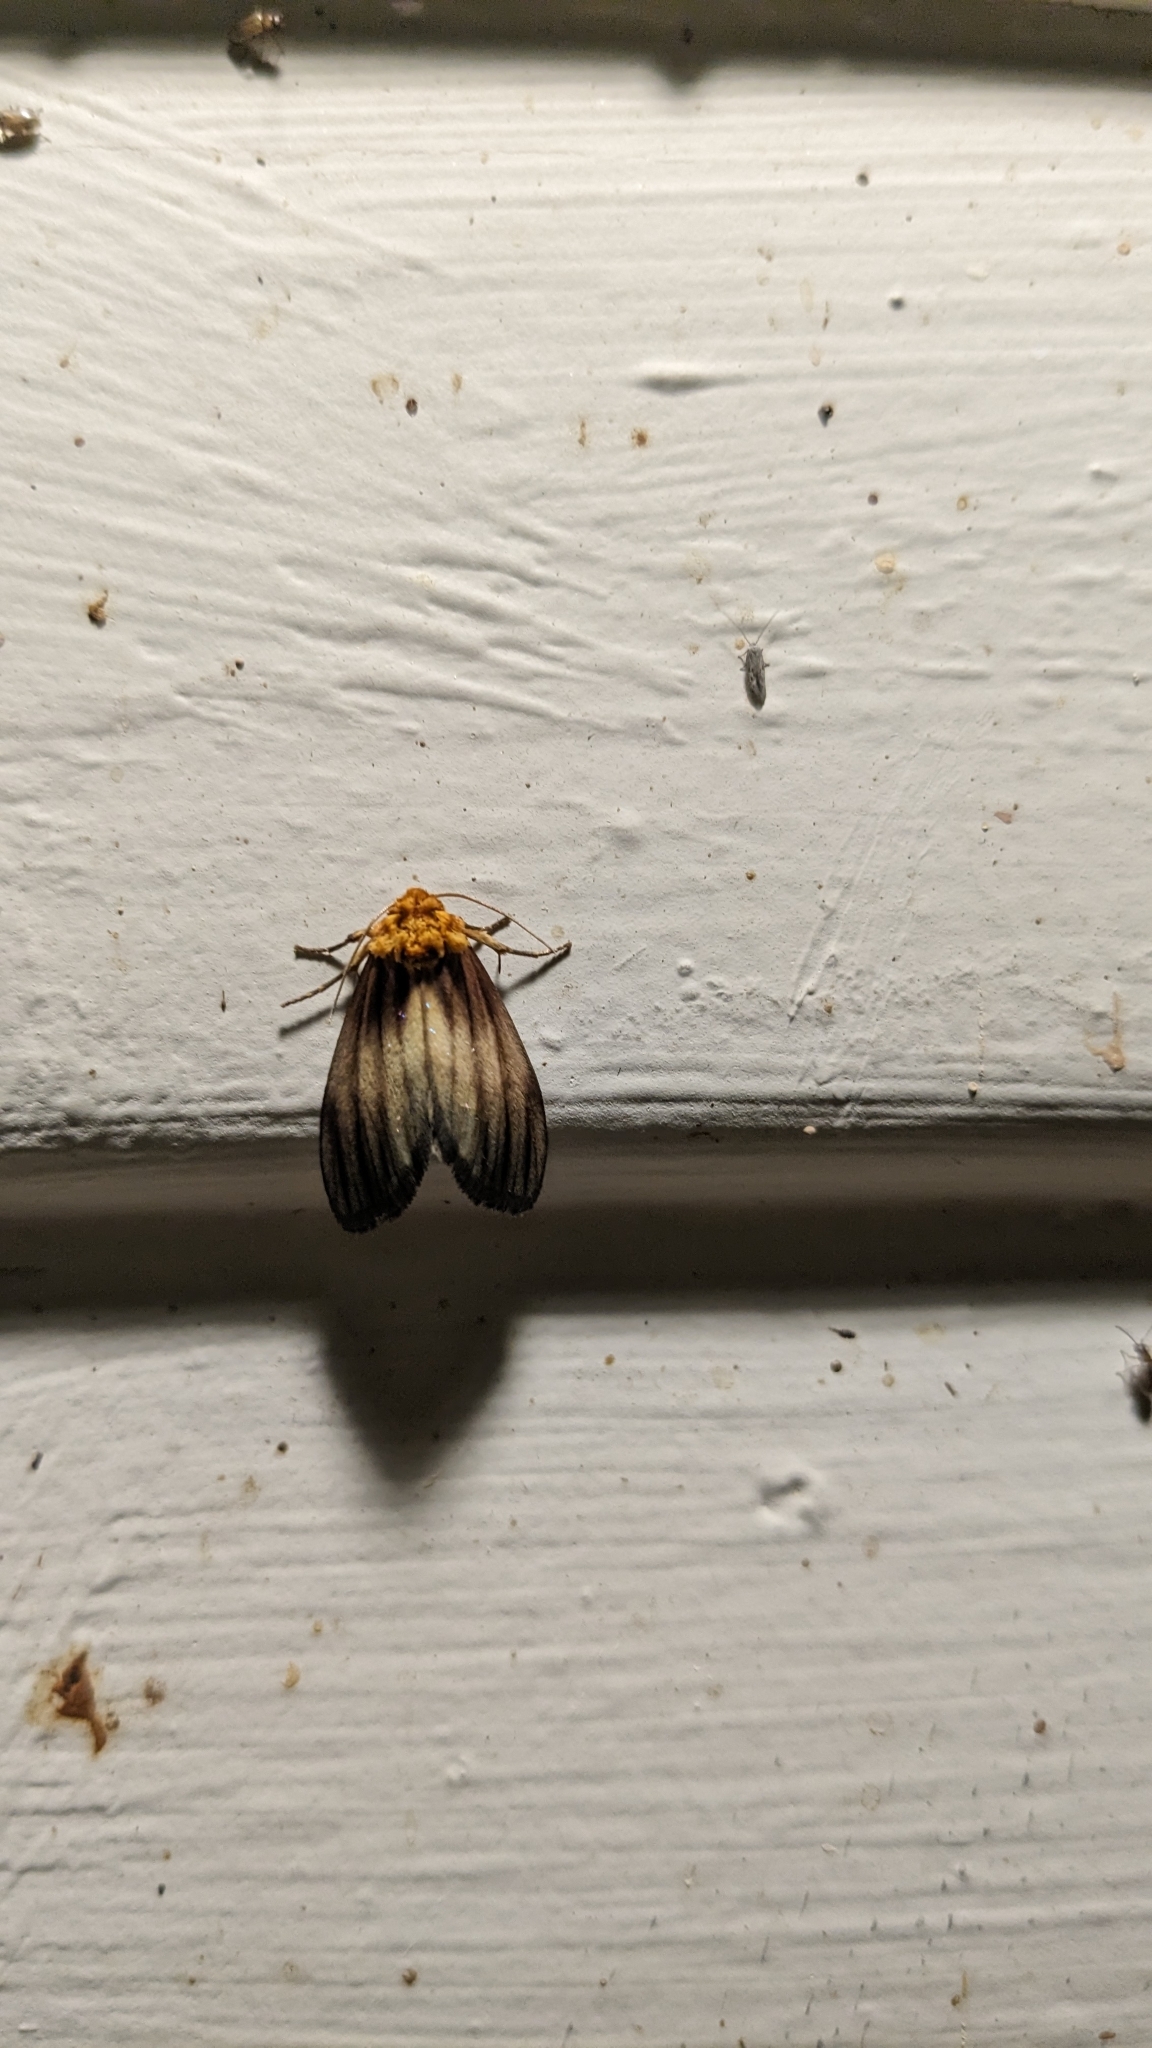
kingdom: Animalia
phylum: Arthropoda
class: Insecta
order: Lepidoptera
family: Noctuidae
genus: Antaplaga
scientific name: Antaplaga plesioglauca
